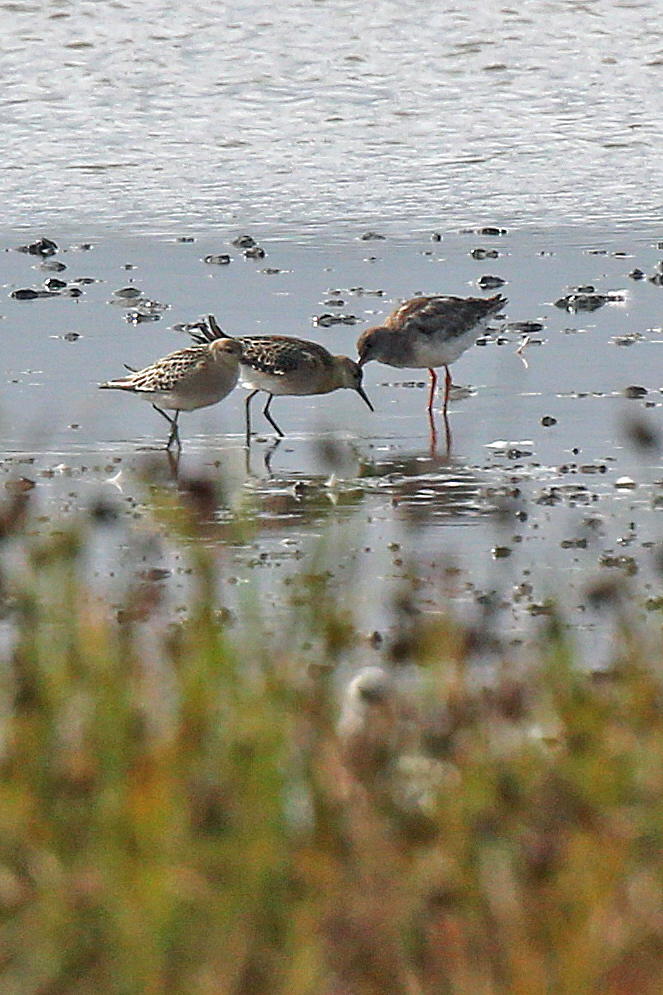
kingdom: Animalia
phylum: Chordata
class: Aves
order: Charadriiformes
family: Scolopacidae
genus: Tringa
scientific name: Tringa totanus
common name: Common redshank
